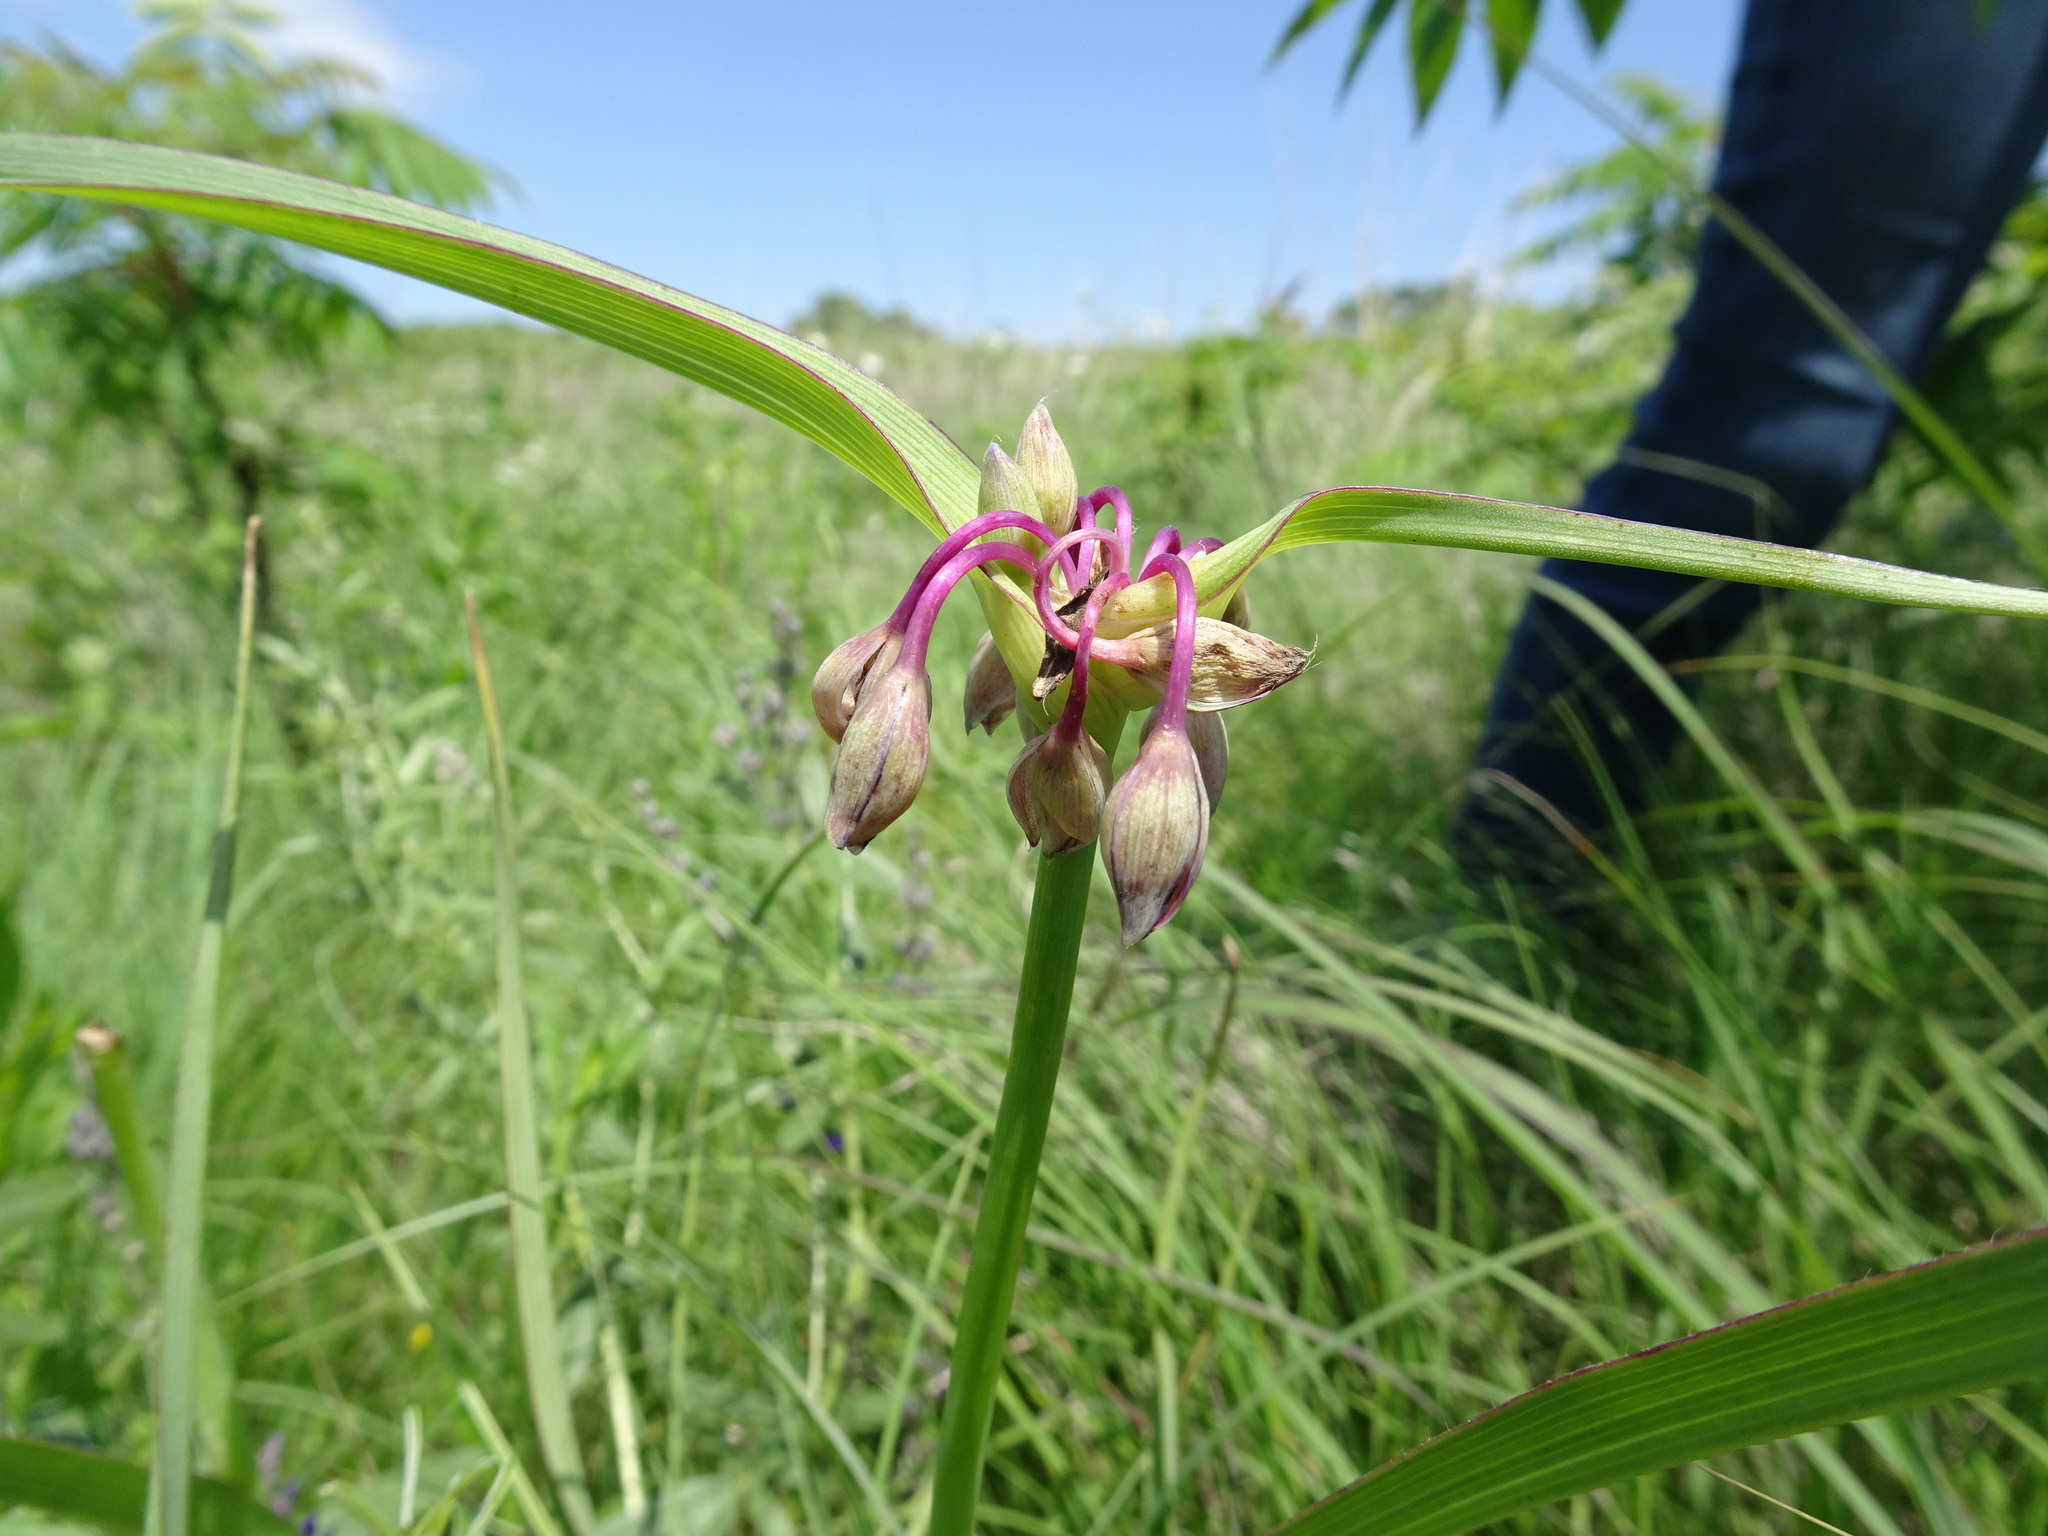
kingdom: Plantae
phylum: Tracheophyta
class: Liliopsida
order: Commelinales
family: Commelinaceae
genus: Tradescantia
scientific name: Tradescantia ohiensis
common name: Ohio spiderwort
